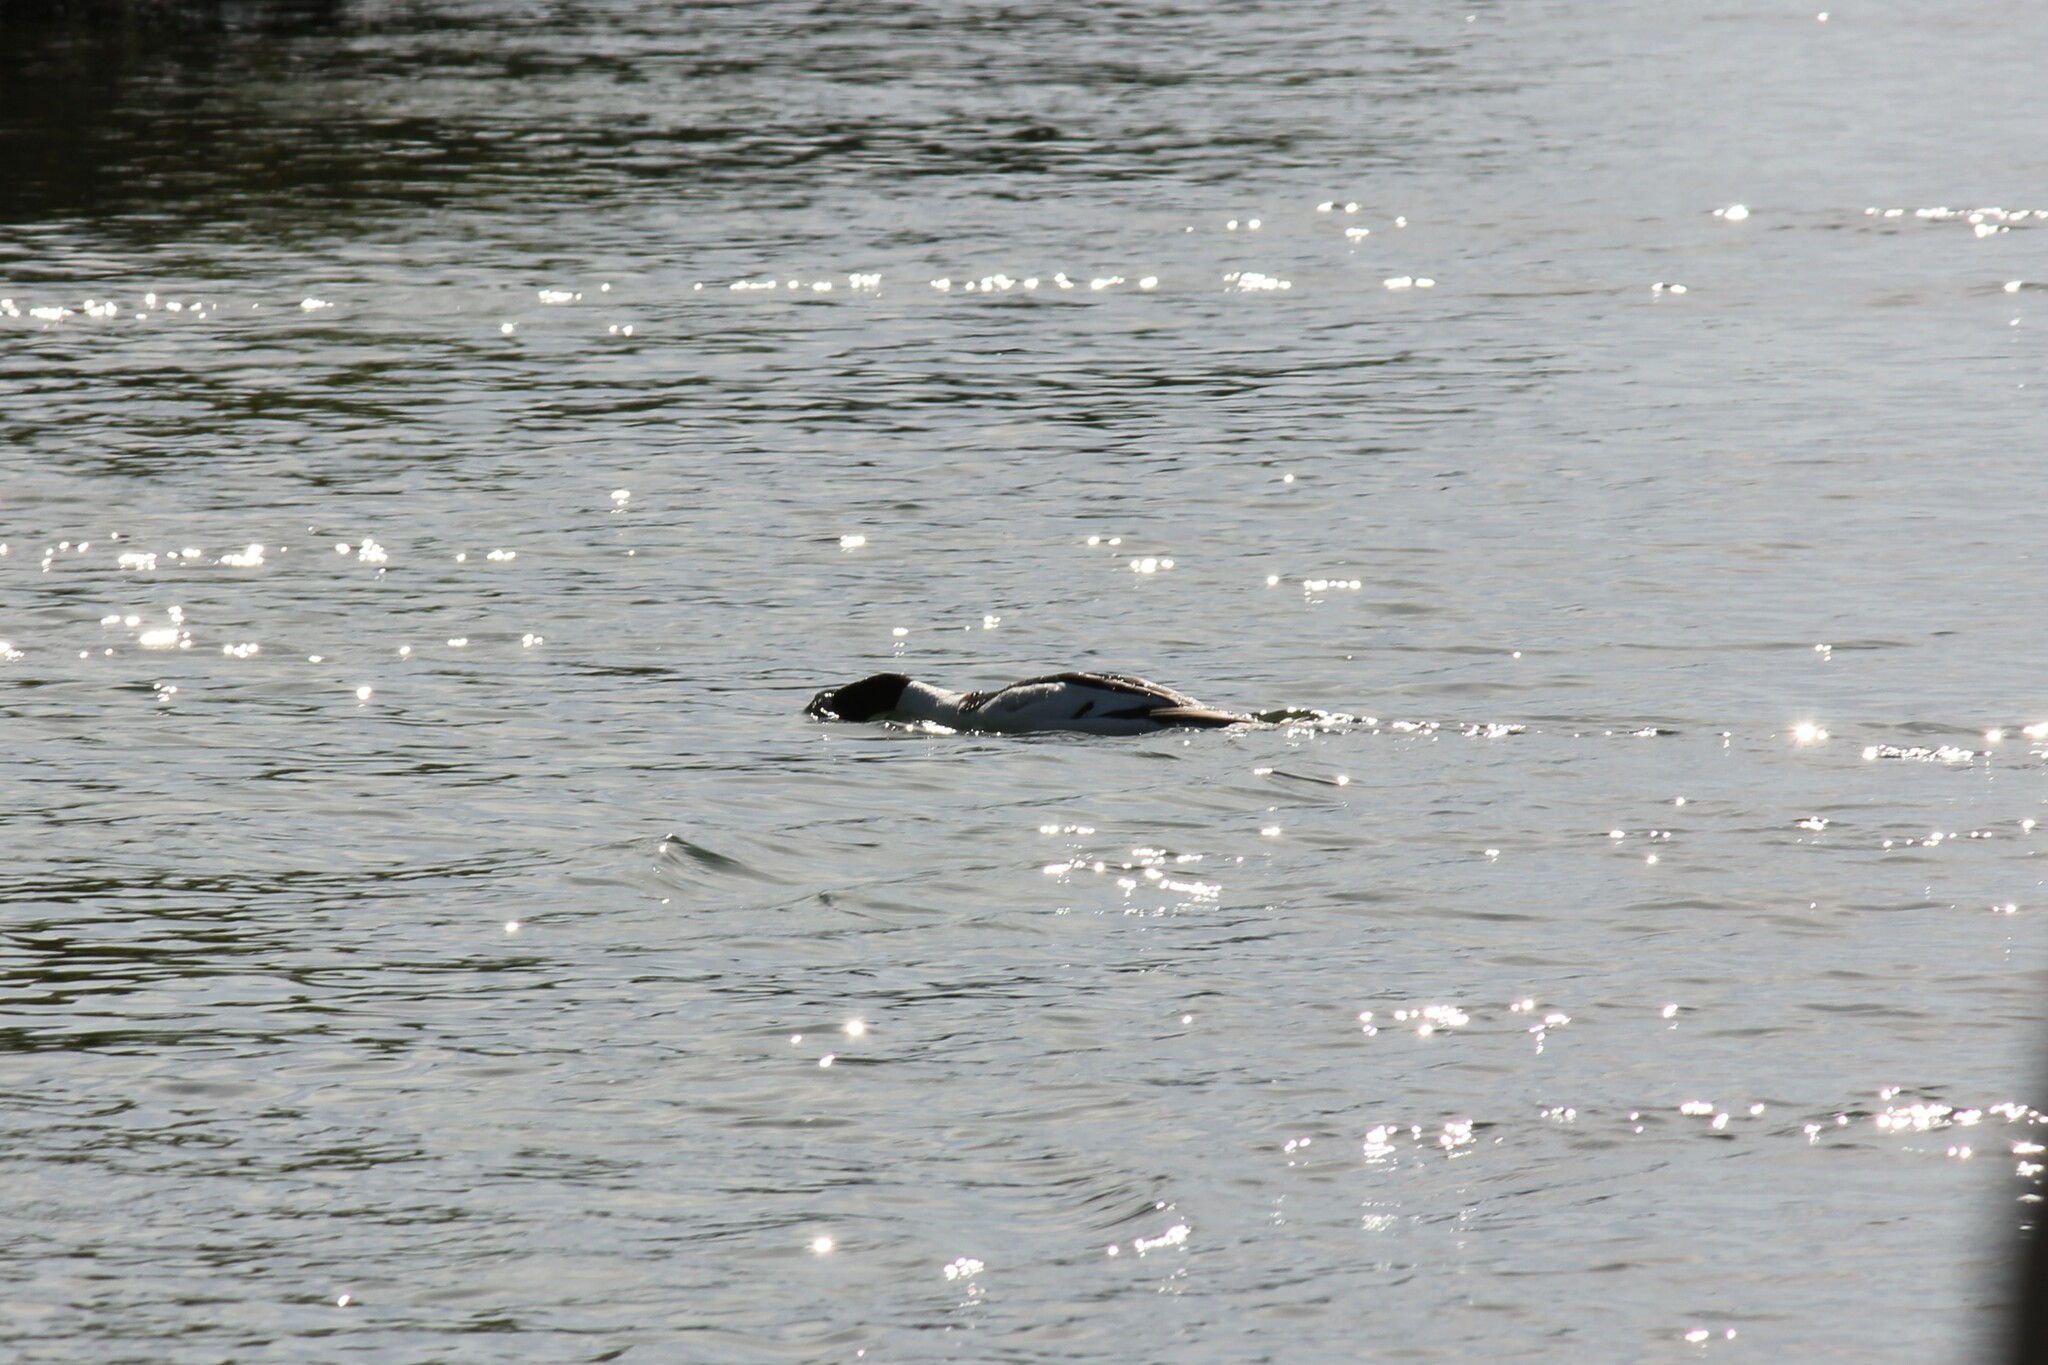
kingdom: Animalia
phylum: Chordata
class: Aves
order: Anseriformes
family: Anatidae
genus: Mergus
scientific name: Mergus merganser
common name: Common merganser
